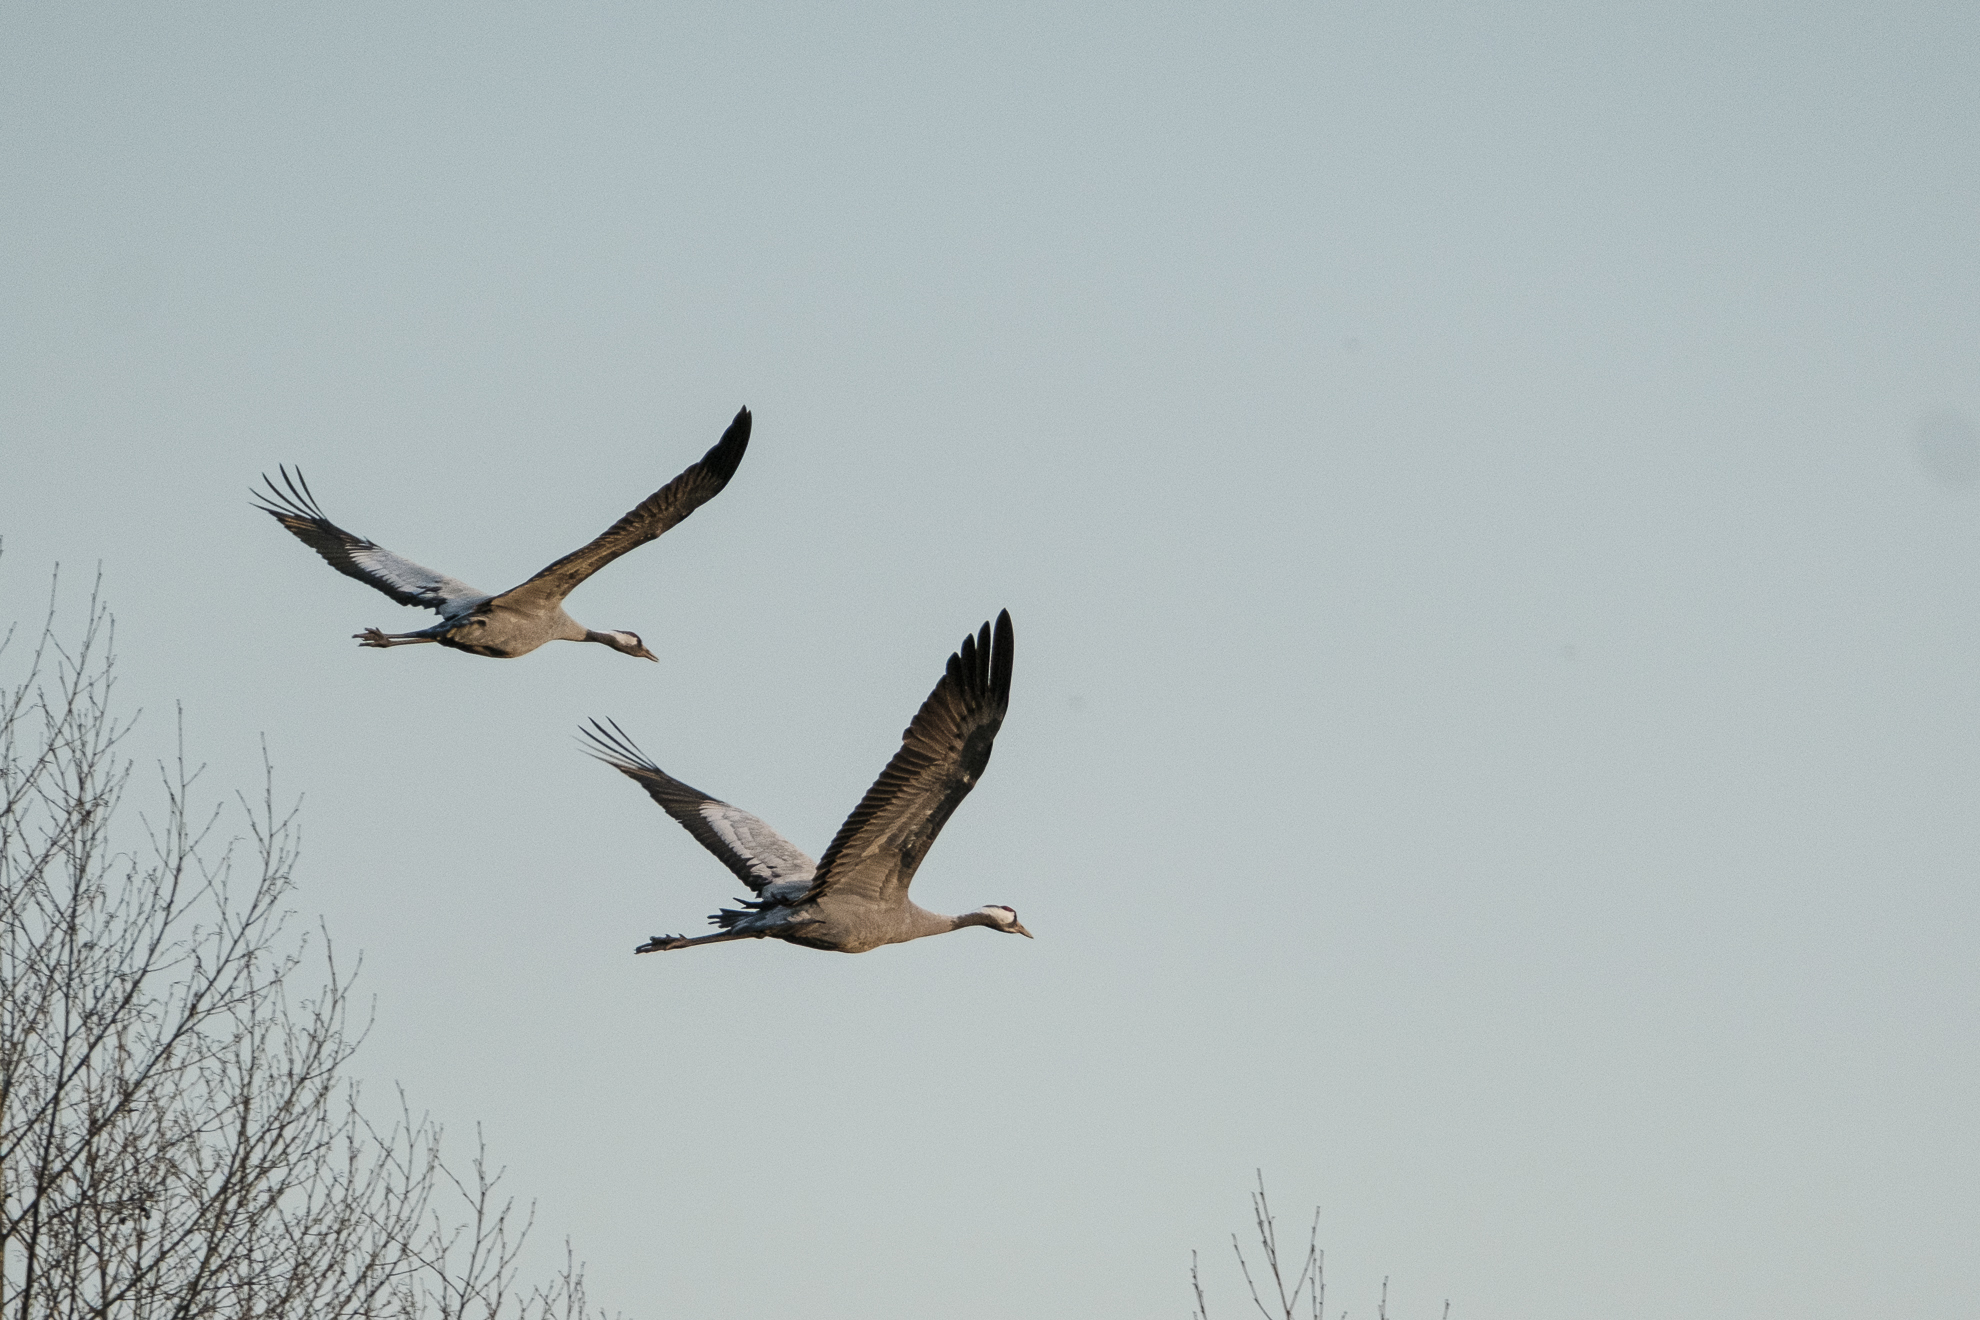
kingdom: Animalia
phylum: Chordata
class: Aves
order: Gruiformes
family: Gruidae
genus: Grus
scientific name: Grus grus
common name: Common crane
